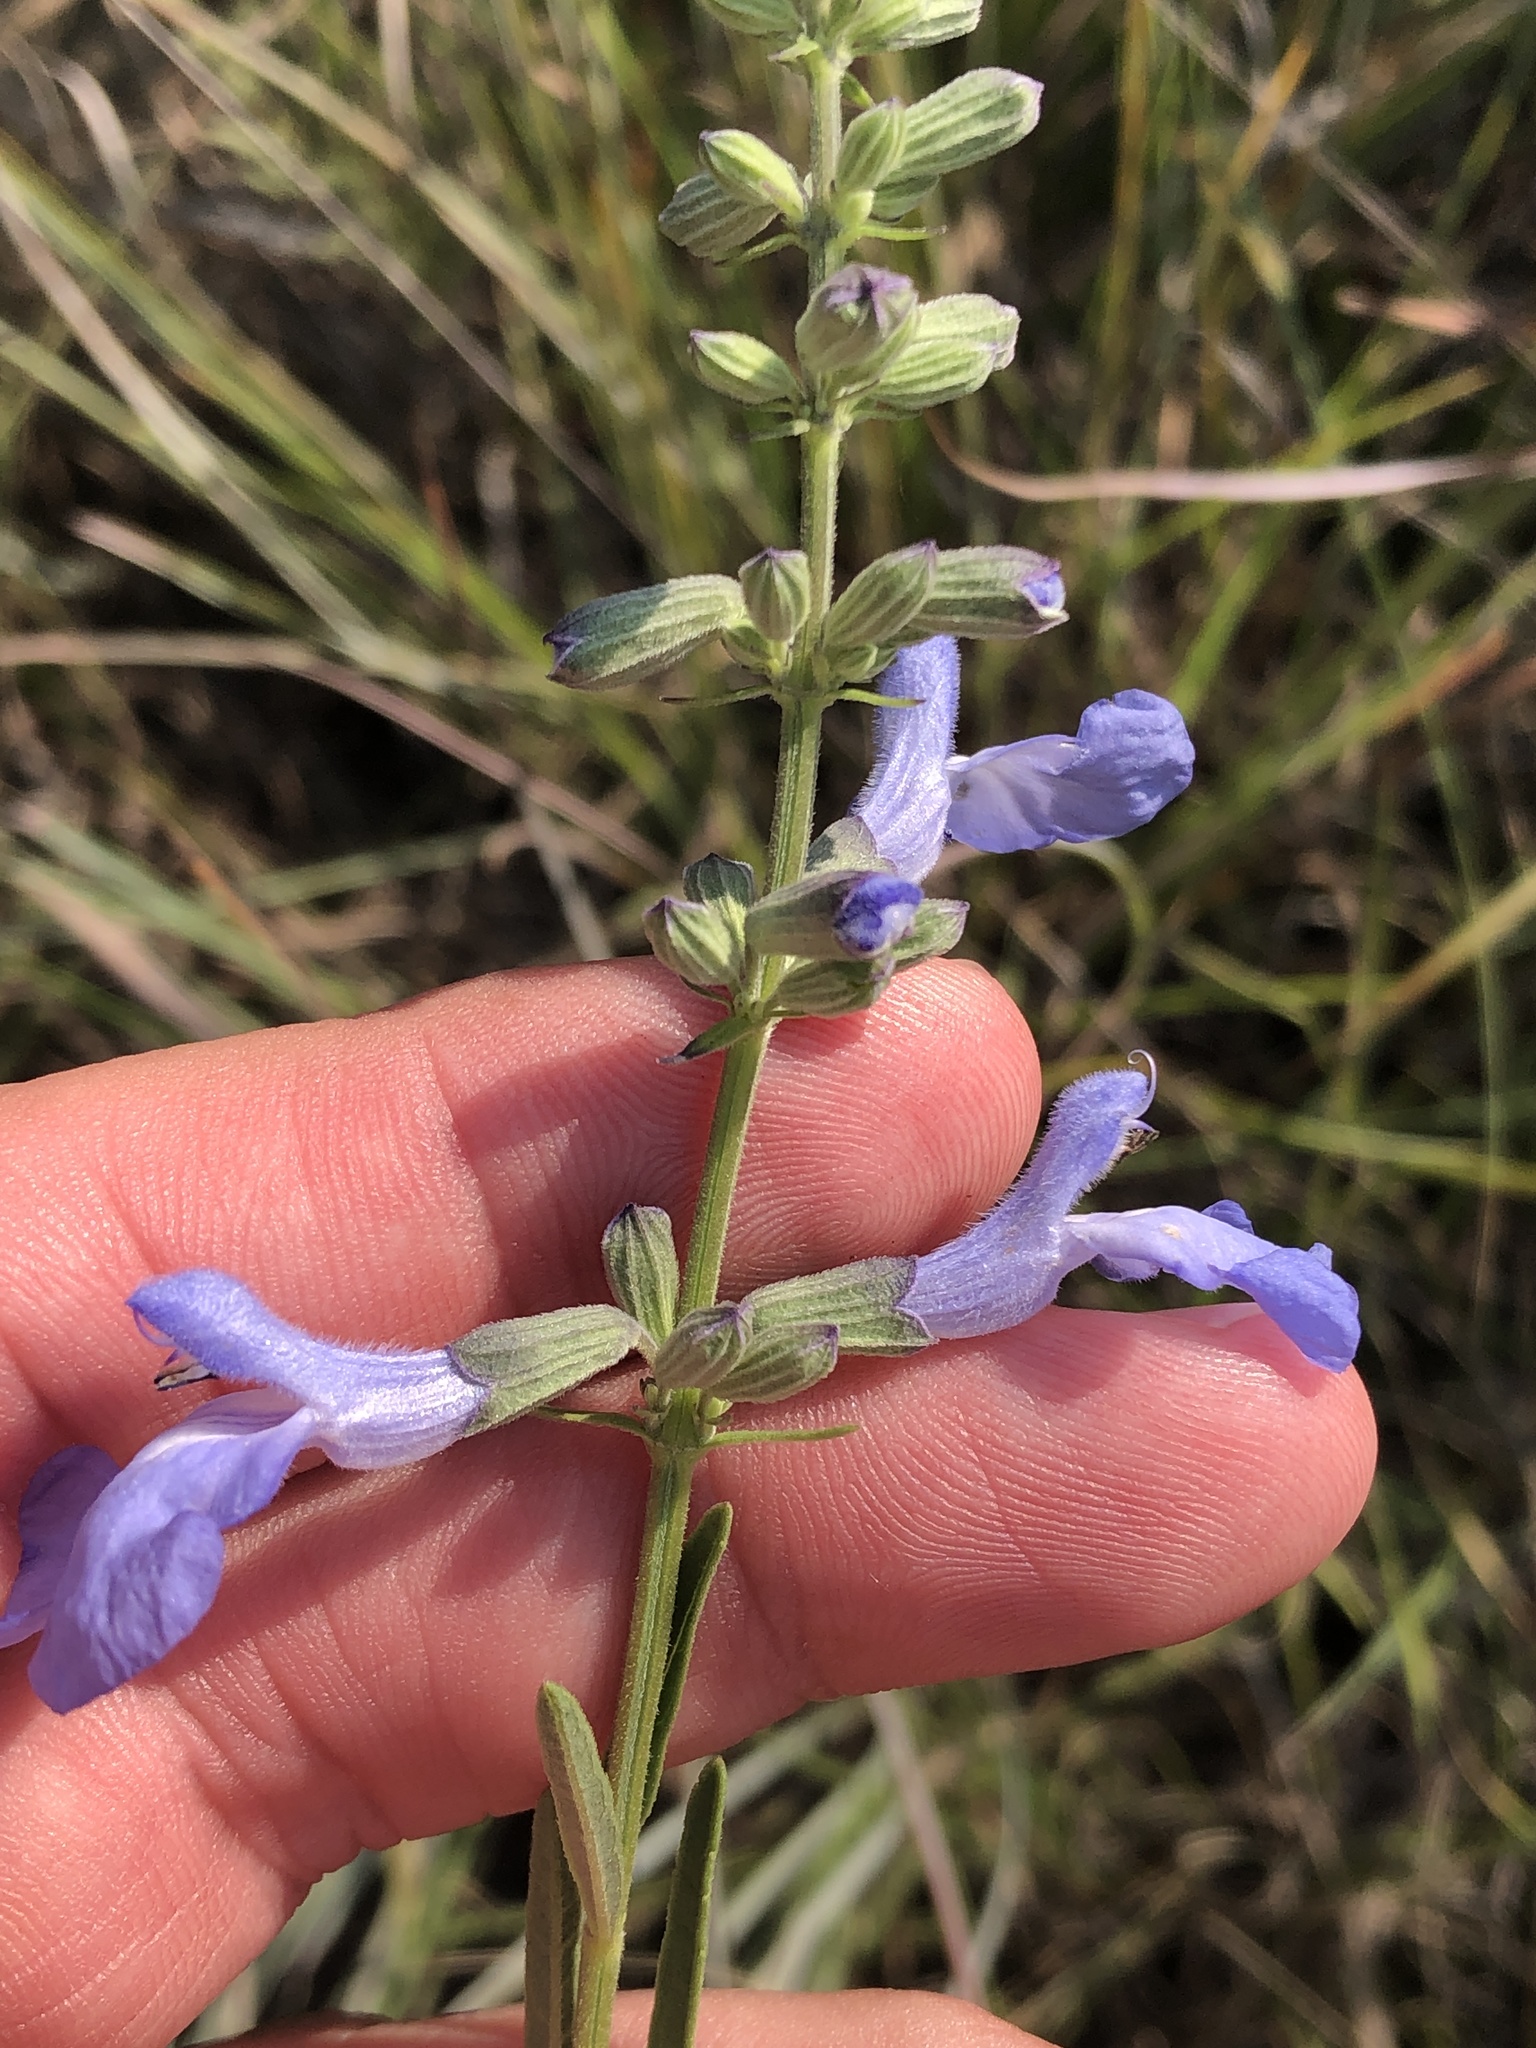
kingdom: Plantae
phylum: Tracheophyta
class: Magnoliopsida
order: Lamiales
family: Lamiaceae
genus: Salvia
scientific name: Salvia azurea
